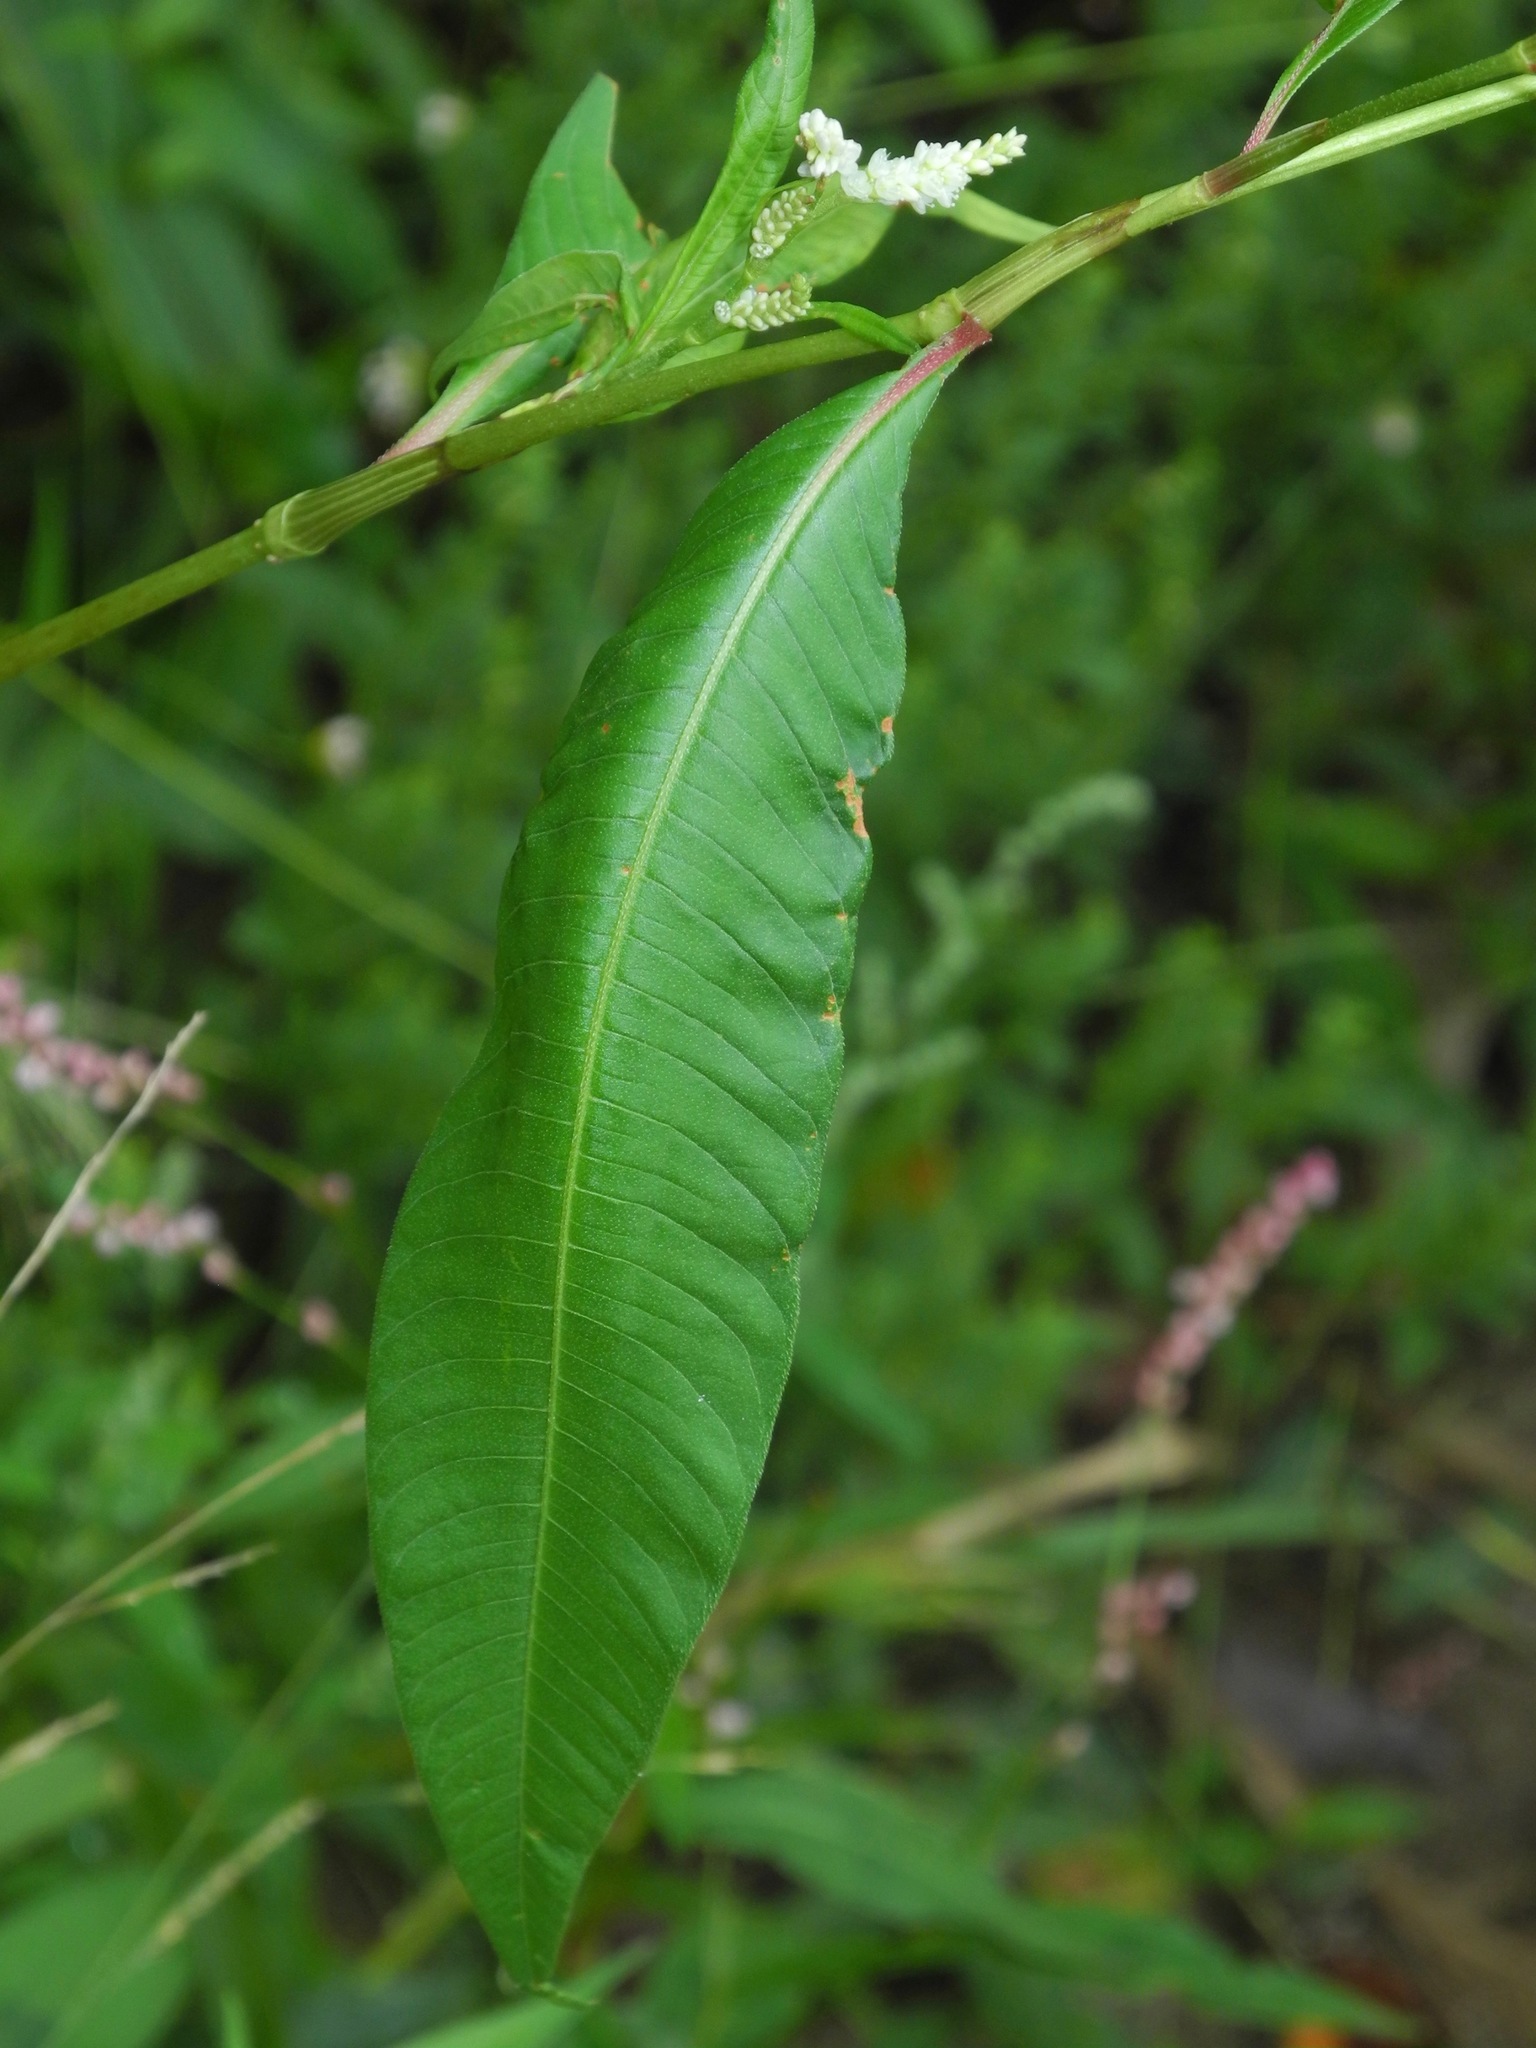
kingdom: Plantae
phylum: Tracheophyta
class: Magnoliopsida
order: Caryophyllales
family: Polygonaceae
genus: Persicaria
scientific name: Persicaria lapathifolia
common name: Curlytop knotweed
